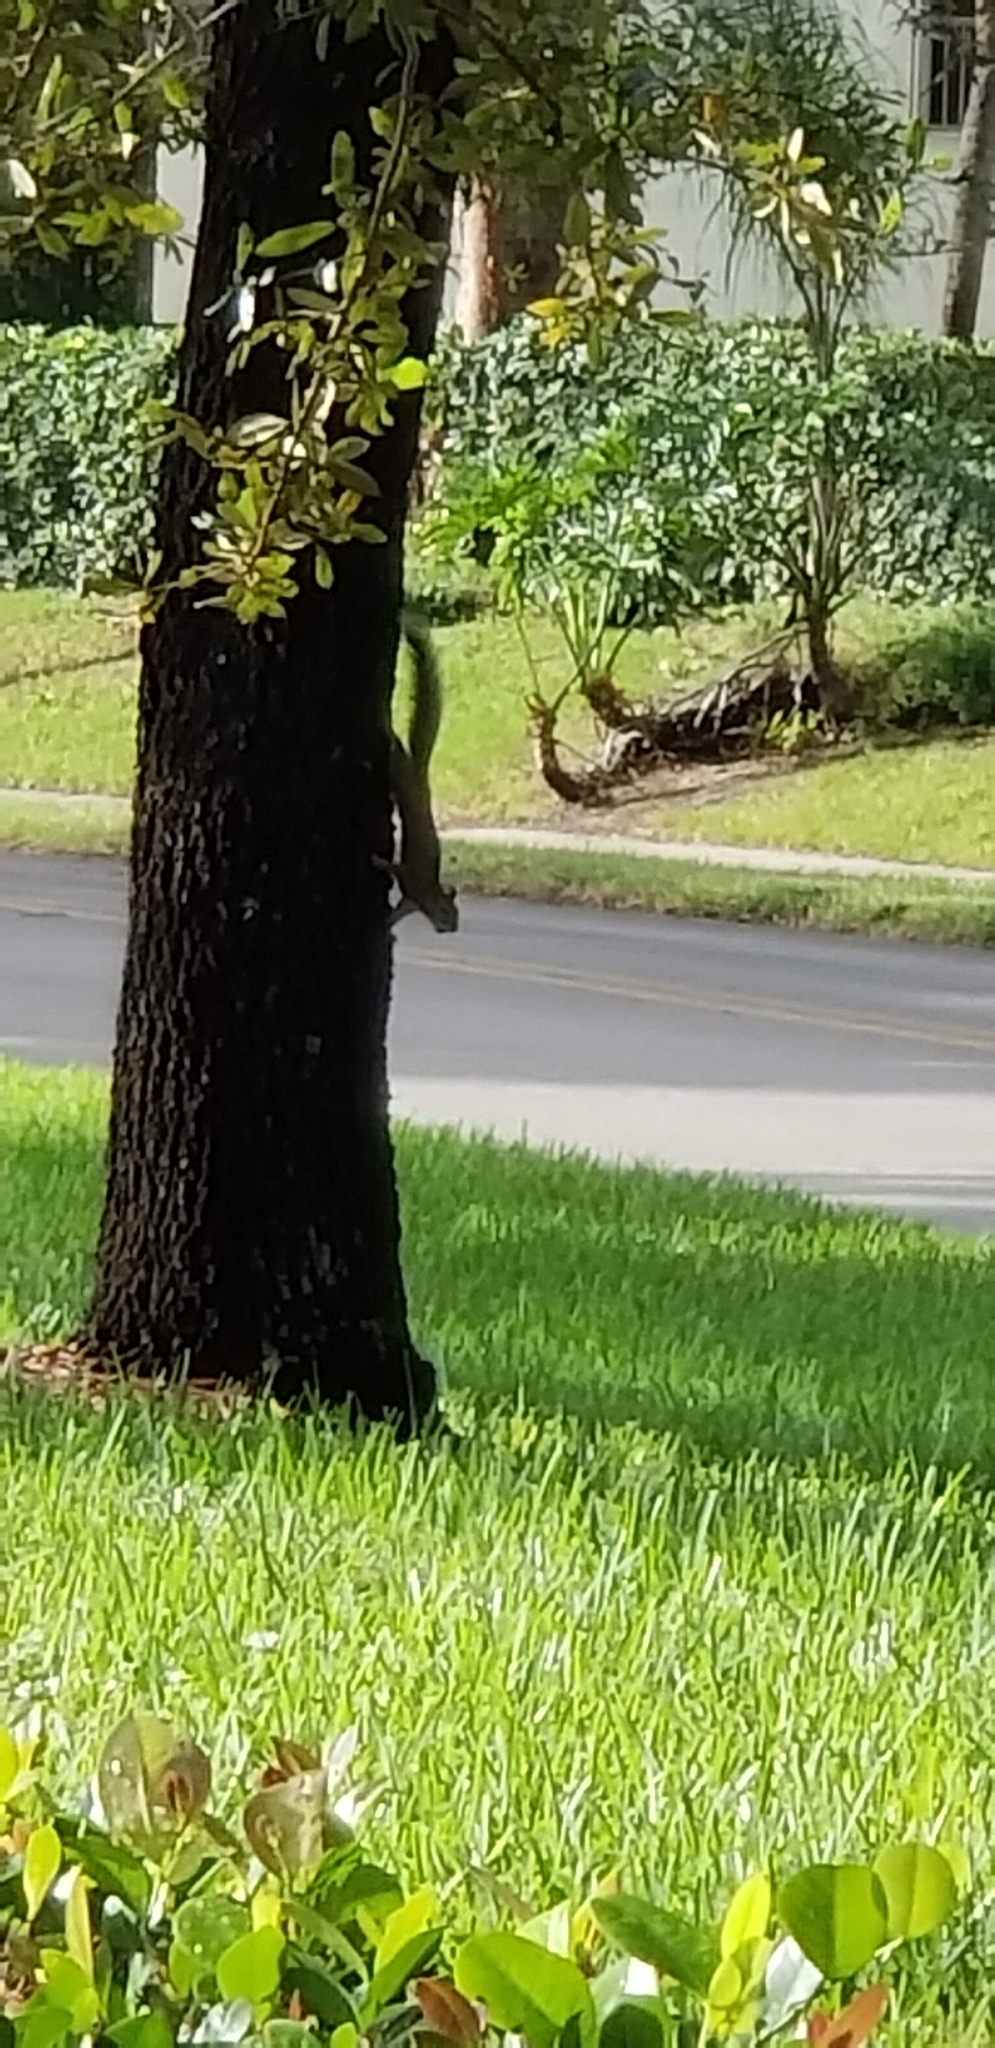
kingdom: Animalia
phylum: Chordata
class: Mammalia
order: Rodentia
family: Sciuridae
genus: Sciurus
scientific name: Sciurus carolinensis
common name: Eastern gray squirrel
